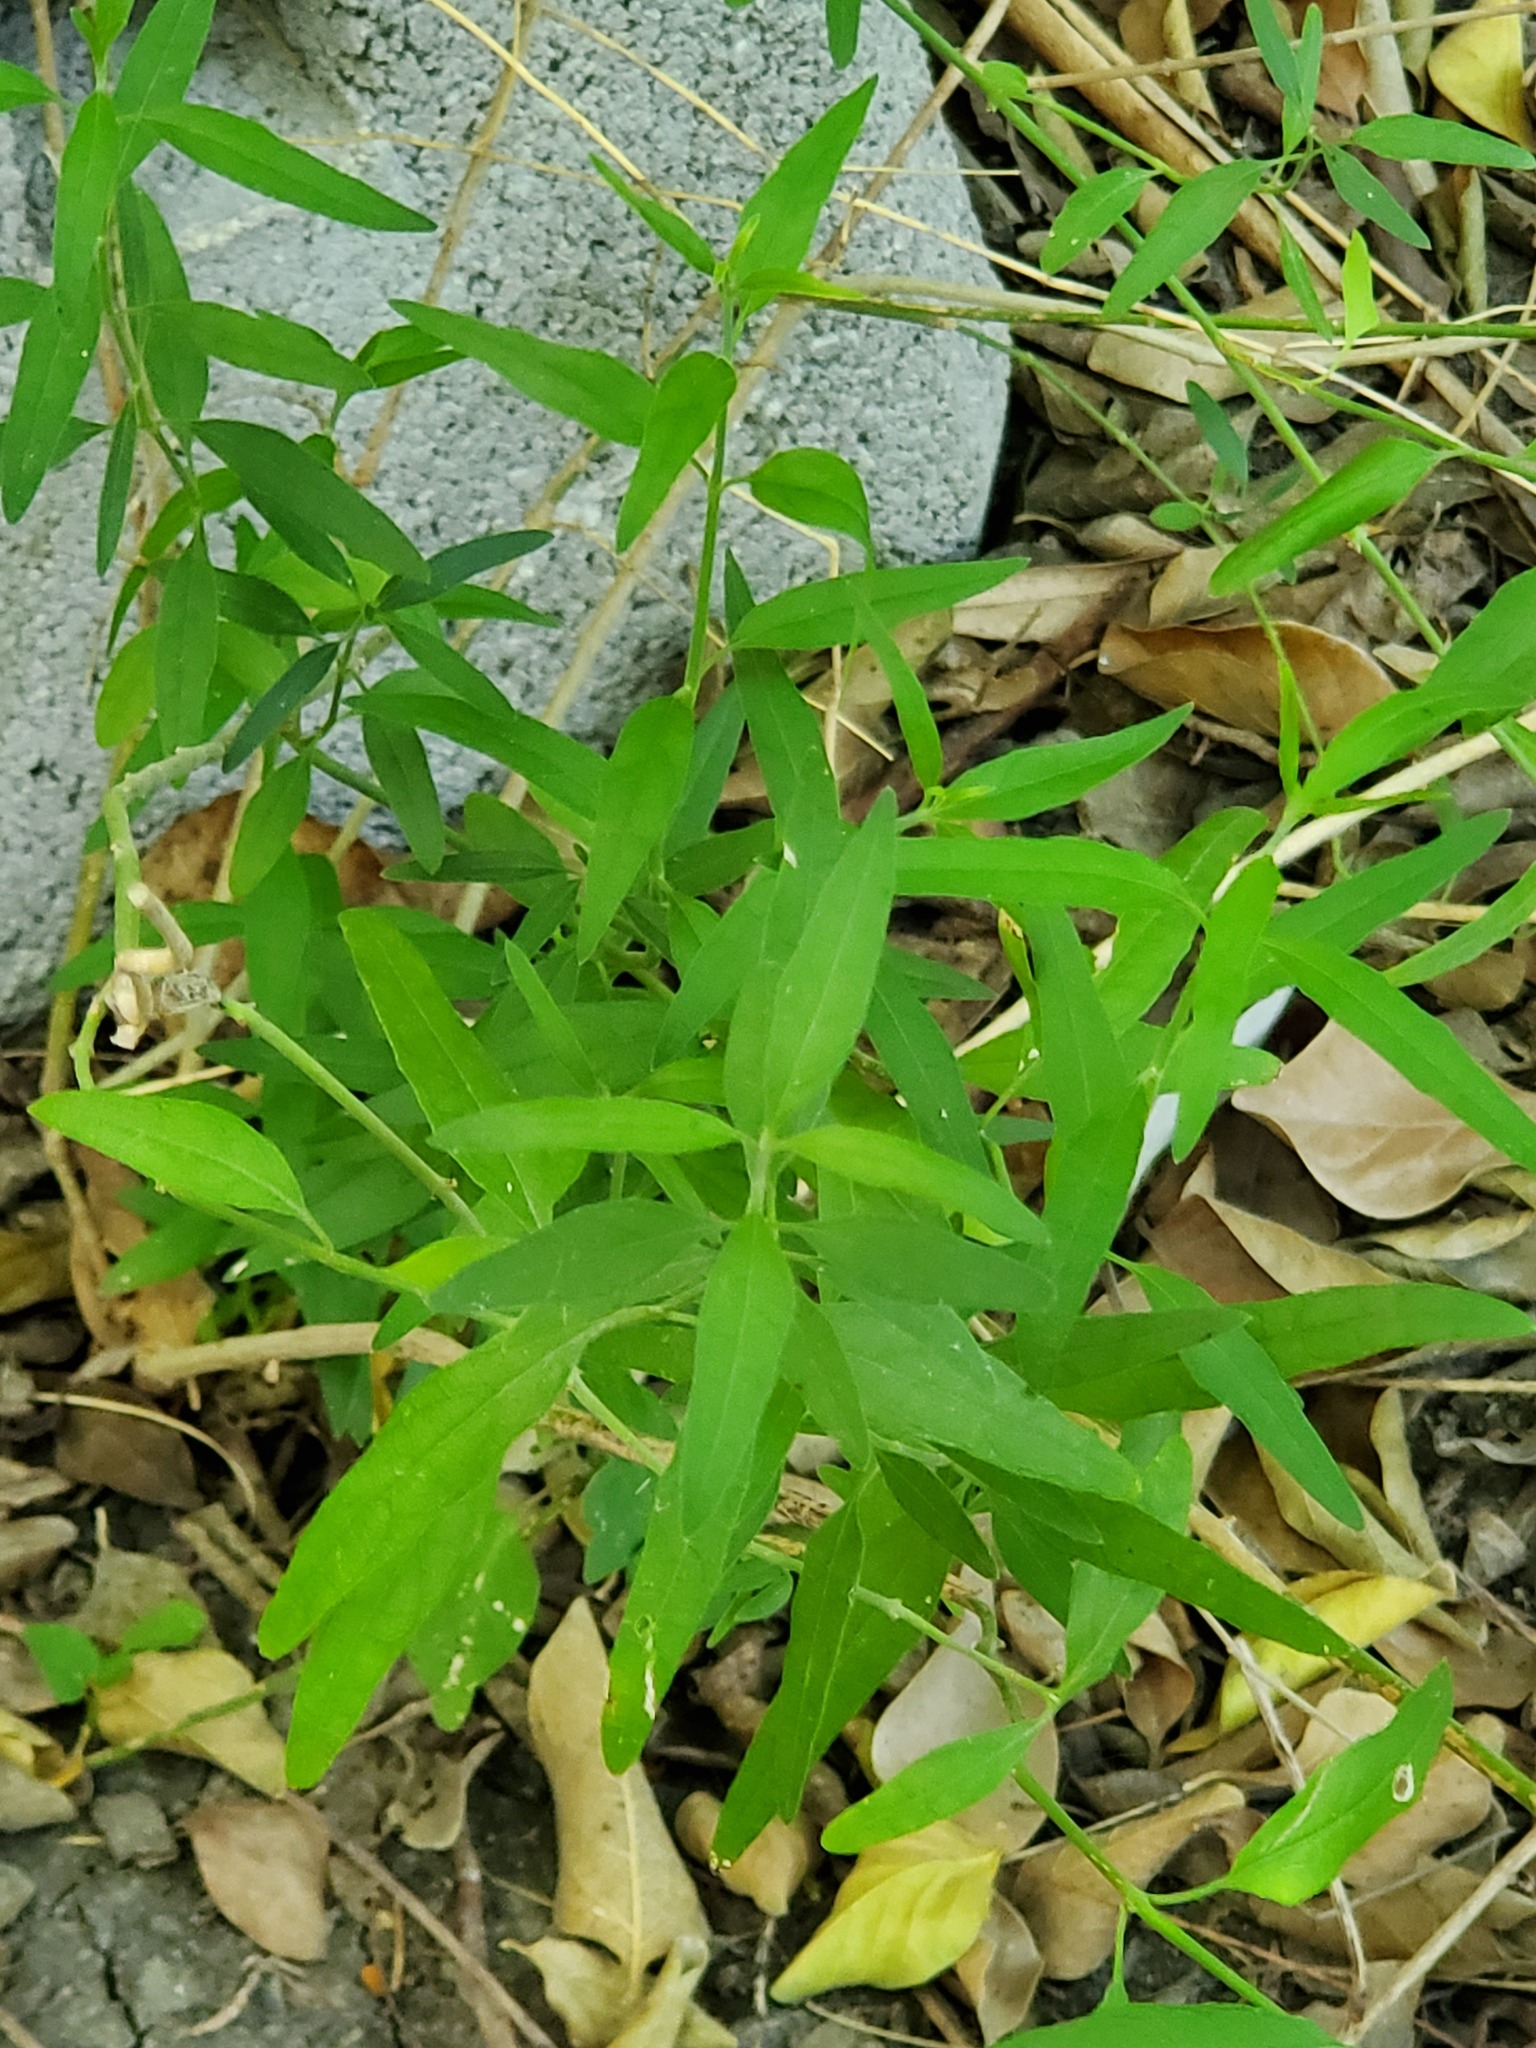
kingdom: Plantae
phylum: Tracheophyta
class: Magnoliopsida
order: Lamiales
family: Acanthaceae
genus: Yeatesia
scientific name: Yeatesia platystegia
